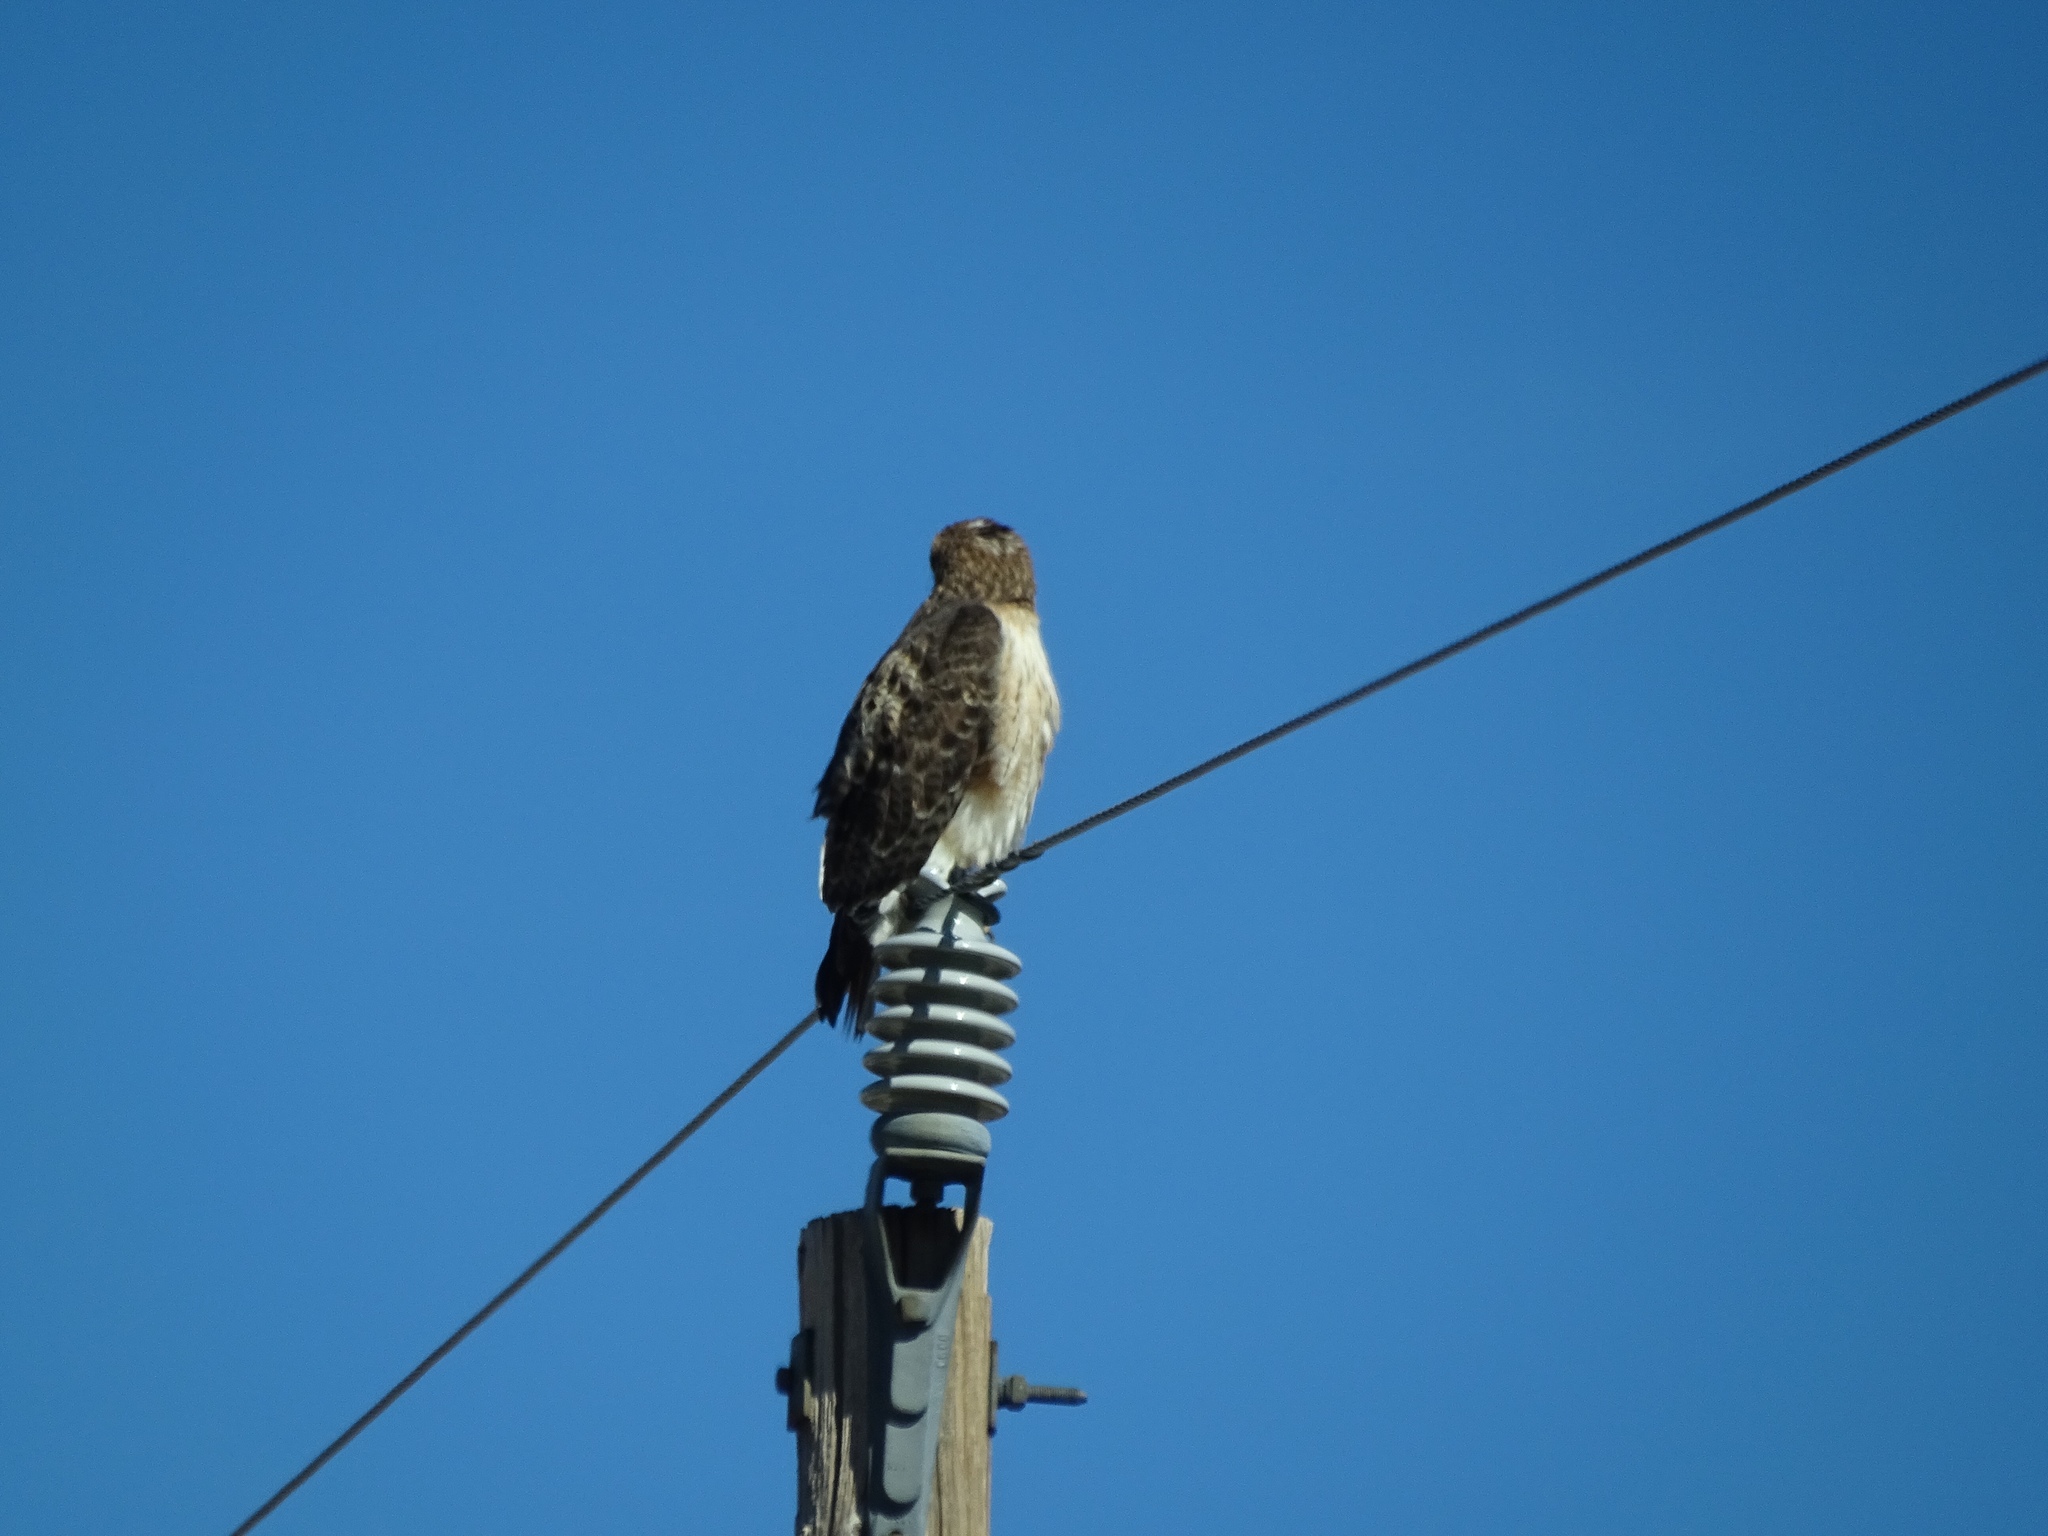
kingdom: Animalia
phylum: Chordata
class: Aves
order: Accipitriformes
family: Accipitridae
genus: Buteo
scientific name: Buteo jamaicensis
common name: Red-tailed hawk
